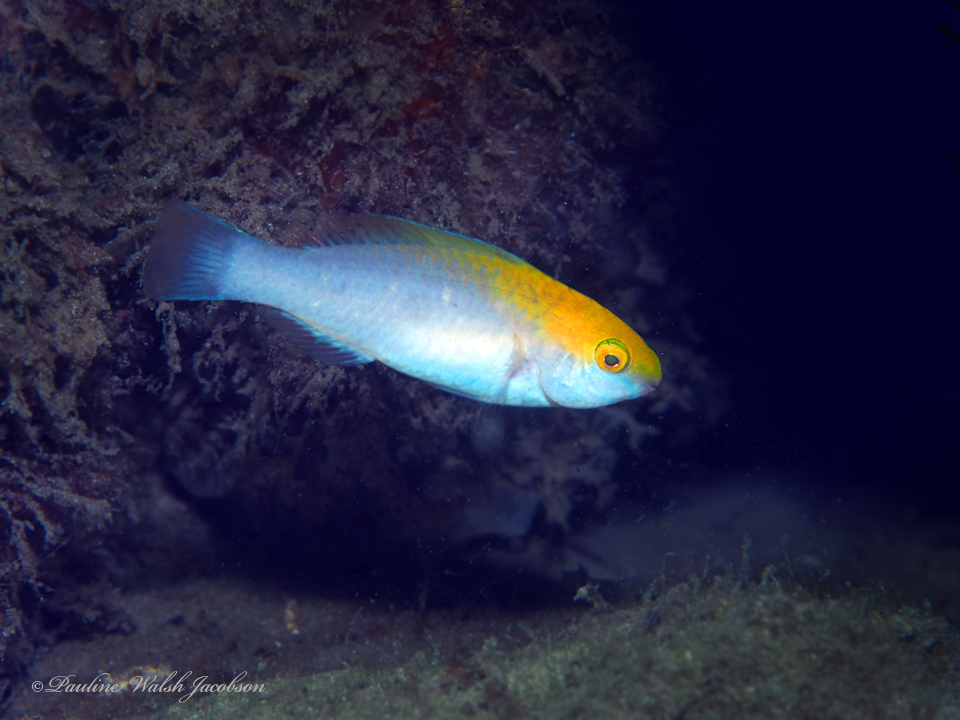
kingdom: Animalia
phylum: Chordata
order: Perciformes
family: Scaridae
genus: Scarus
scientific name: Scarus coeruleus
